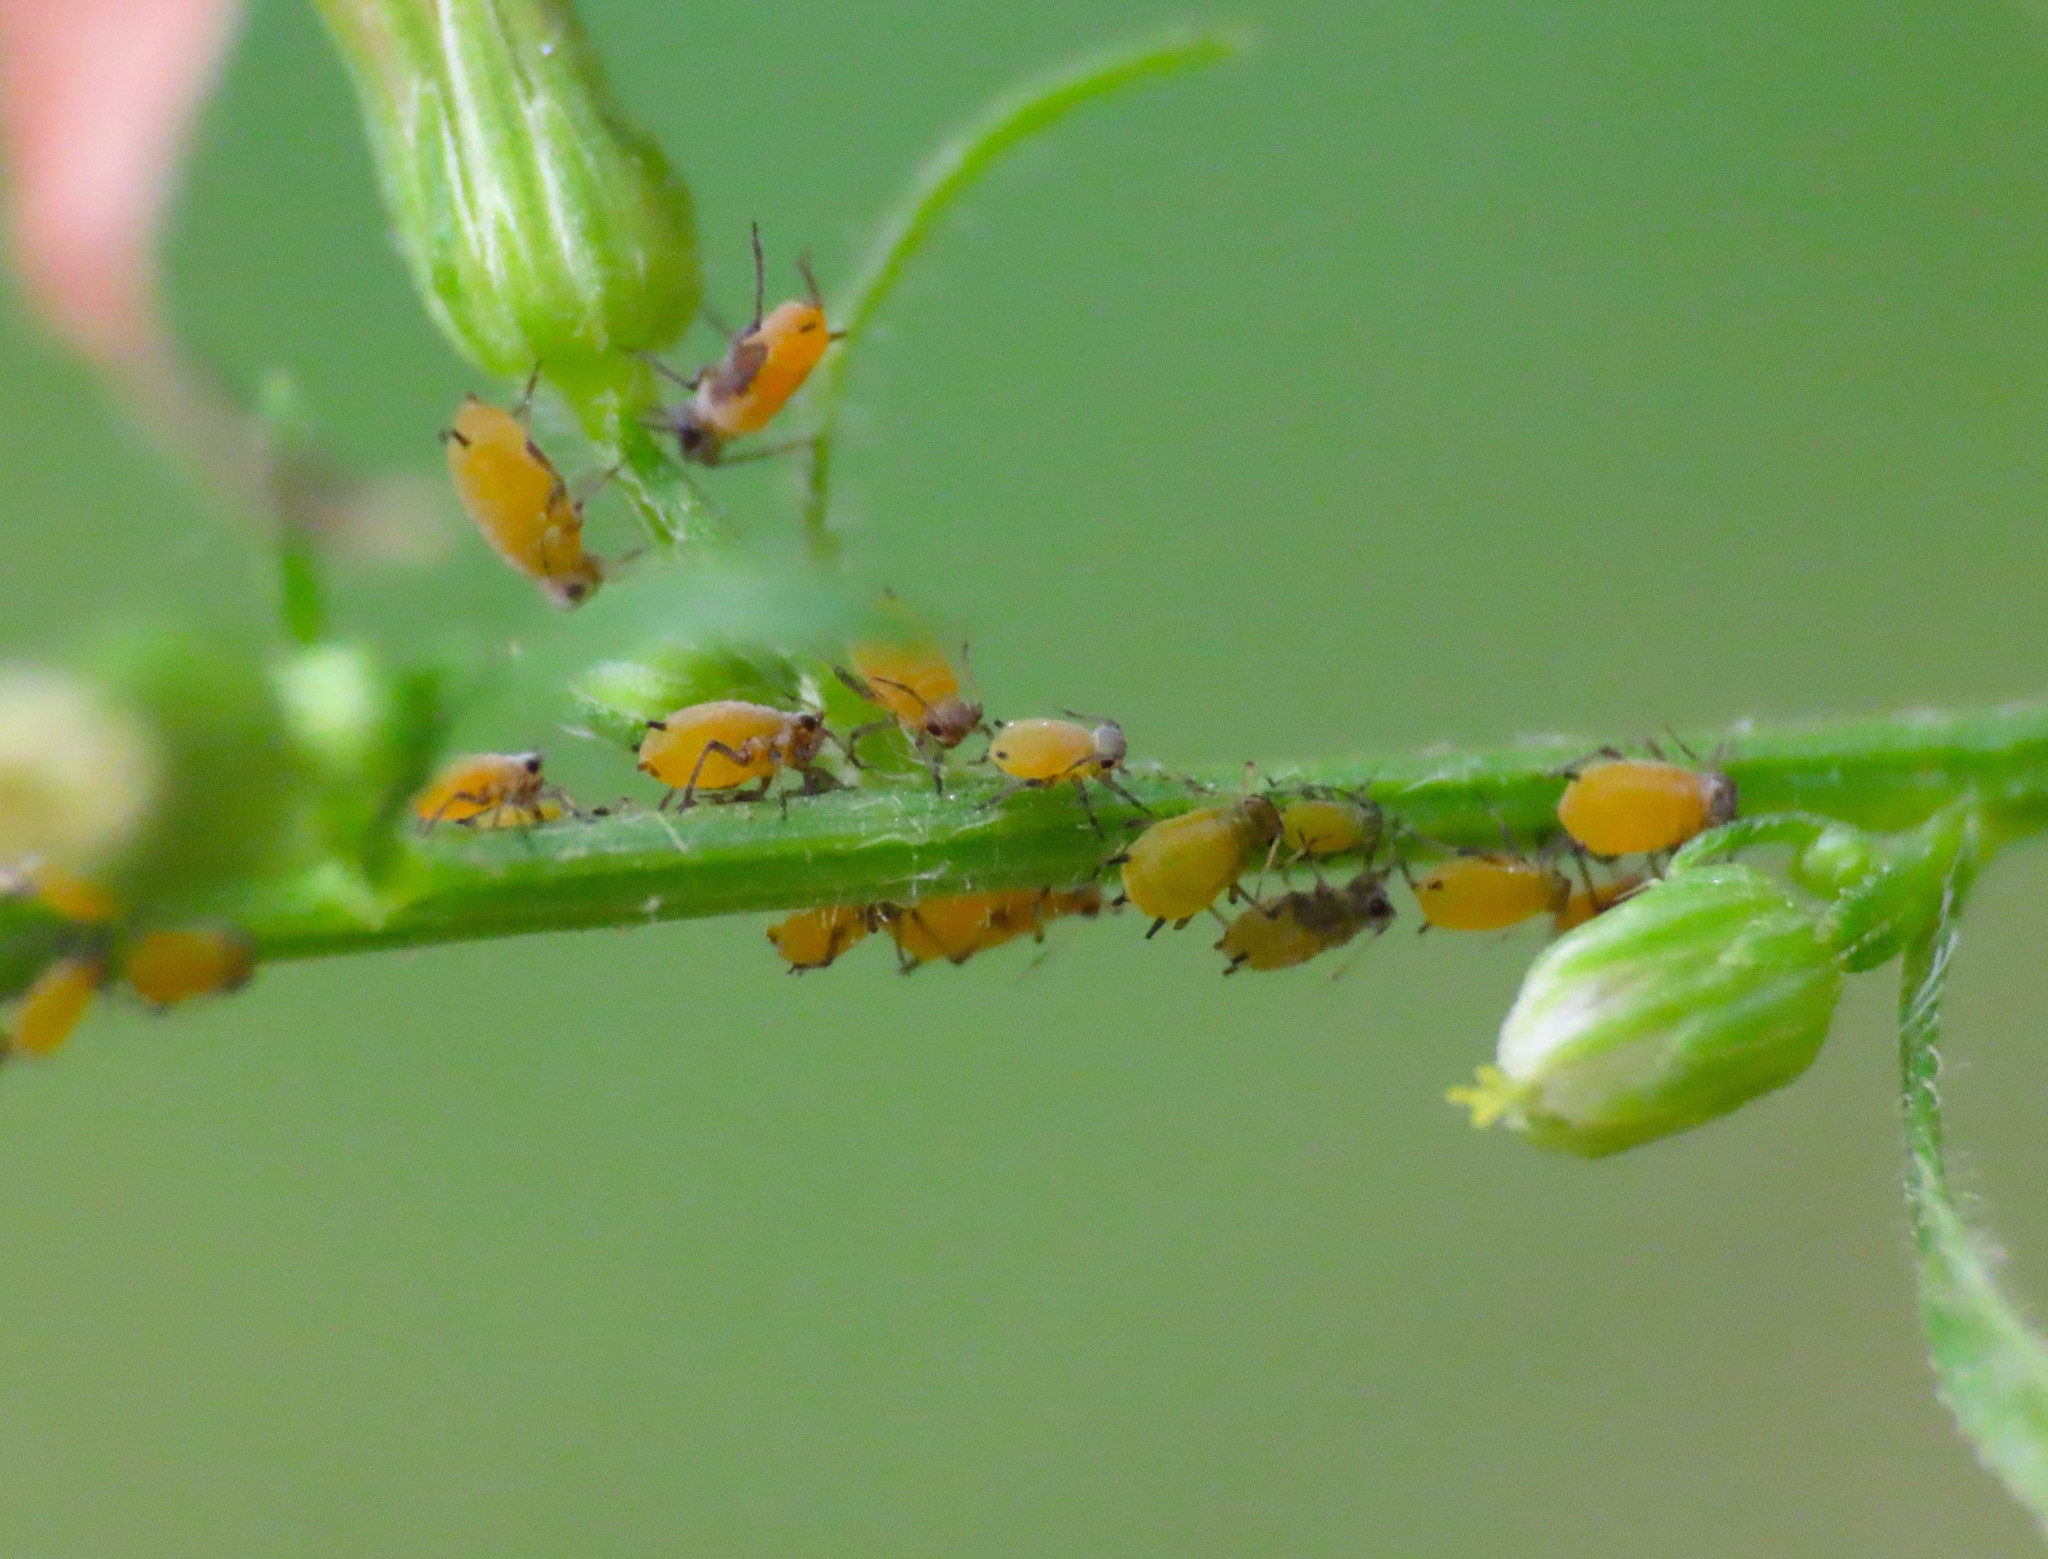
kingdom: Animalia
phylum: Arthropoda
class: Insecta
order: Hemiptera
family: Aphididae
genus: Aphis
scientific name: Aphis nerii
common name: Oleander aphid
